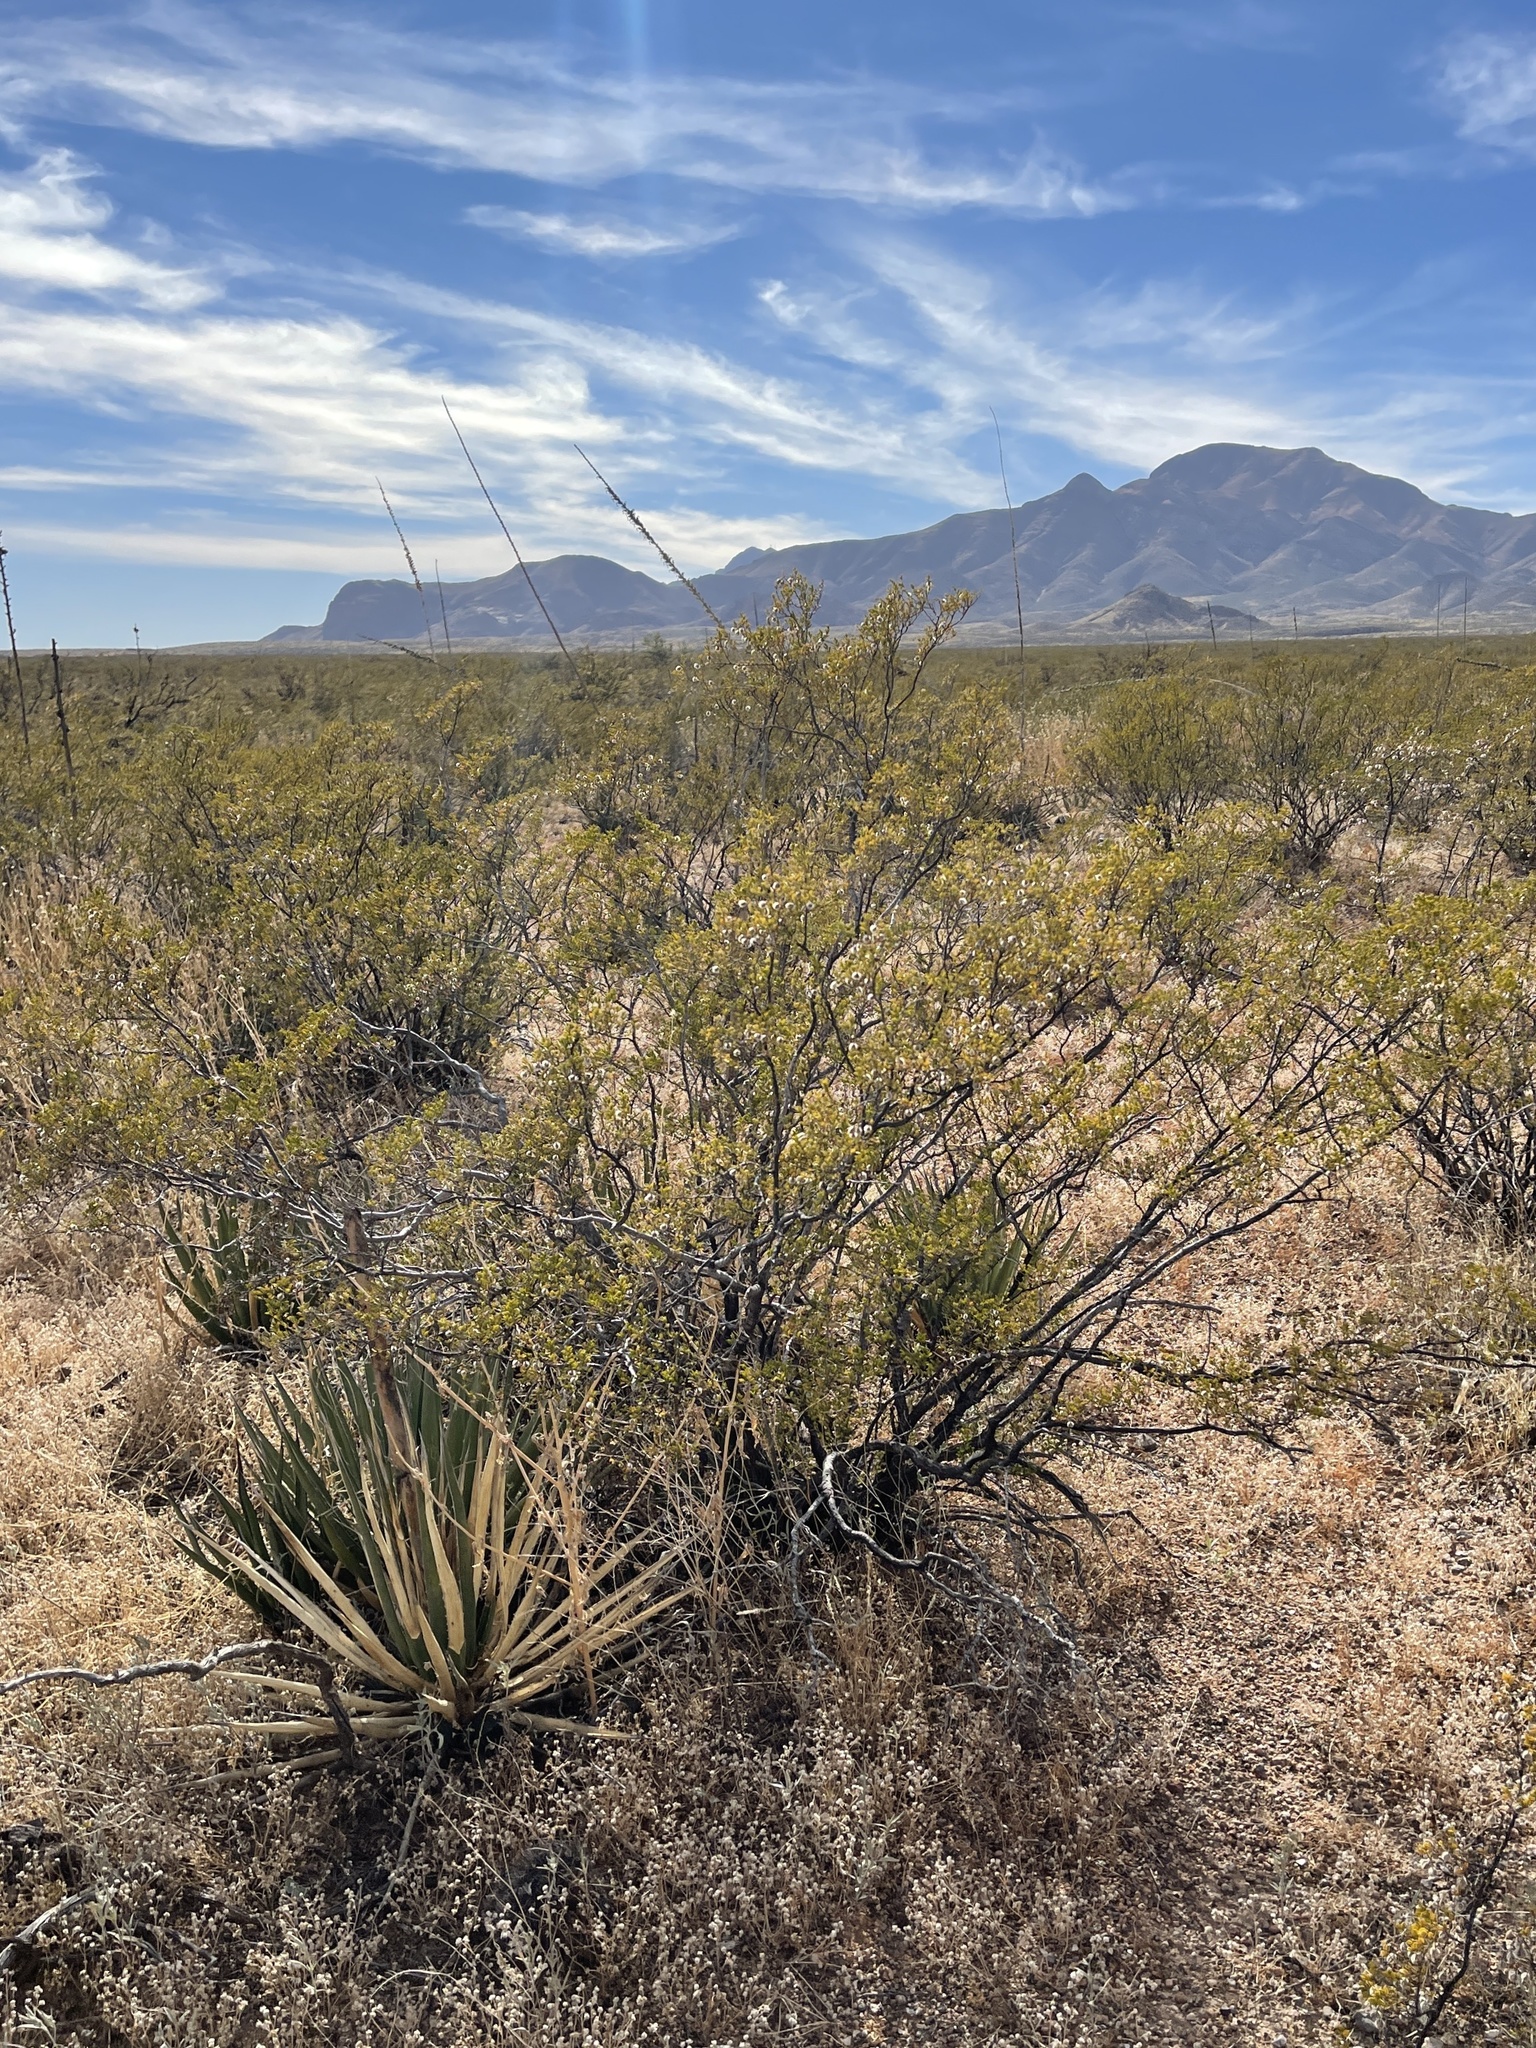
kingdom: Plantae
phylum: Tracheophyta
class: Magnoliopsida
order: Zygophyllales
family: Zygophyllaceae
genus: Larrea
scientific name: Larrea tridentata
